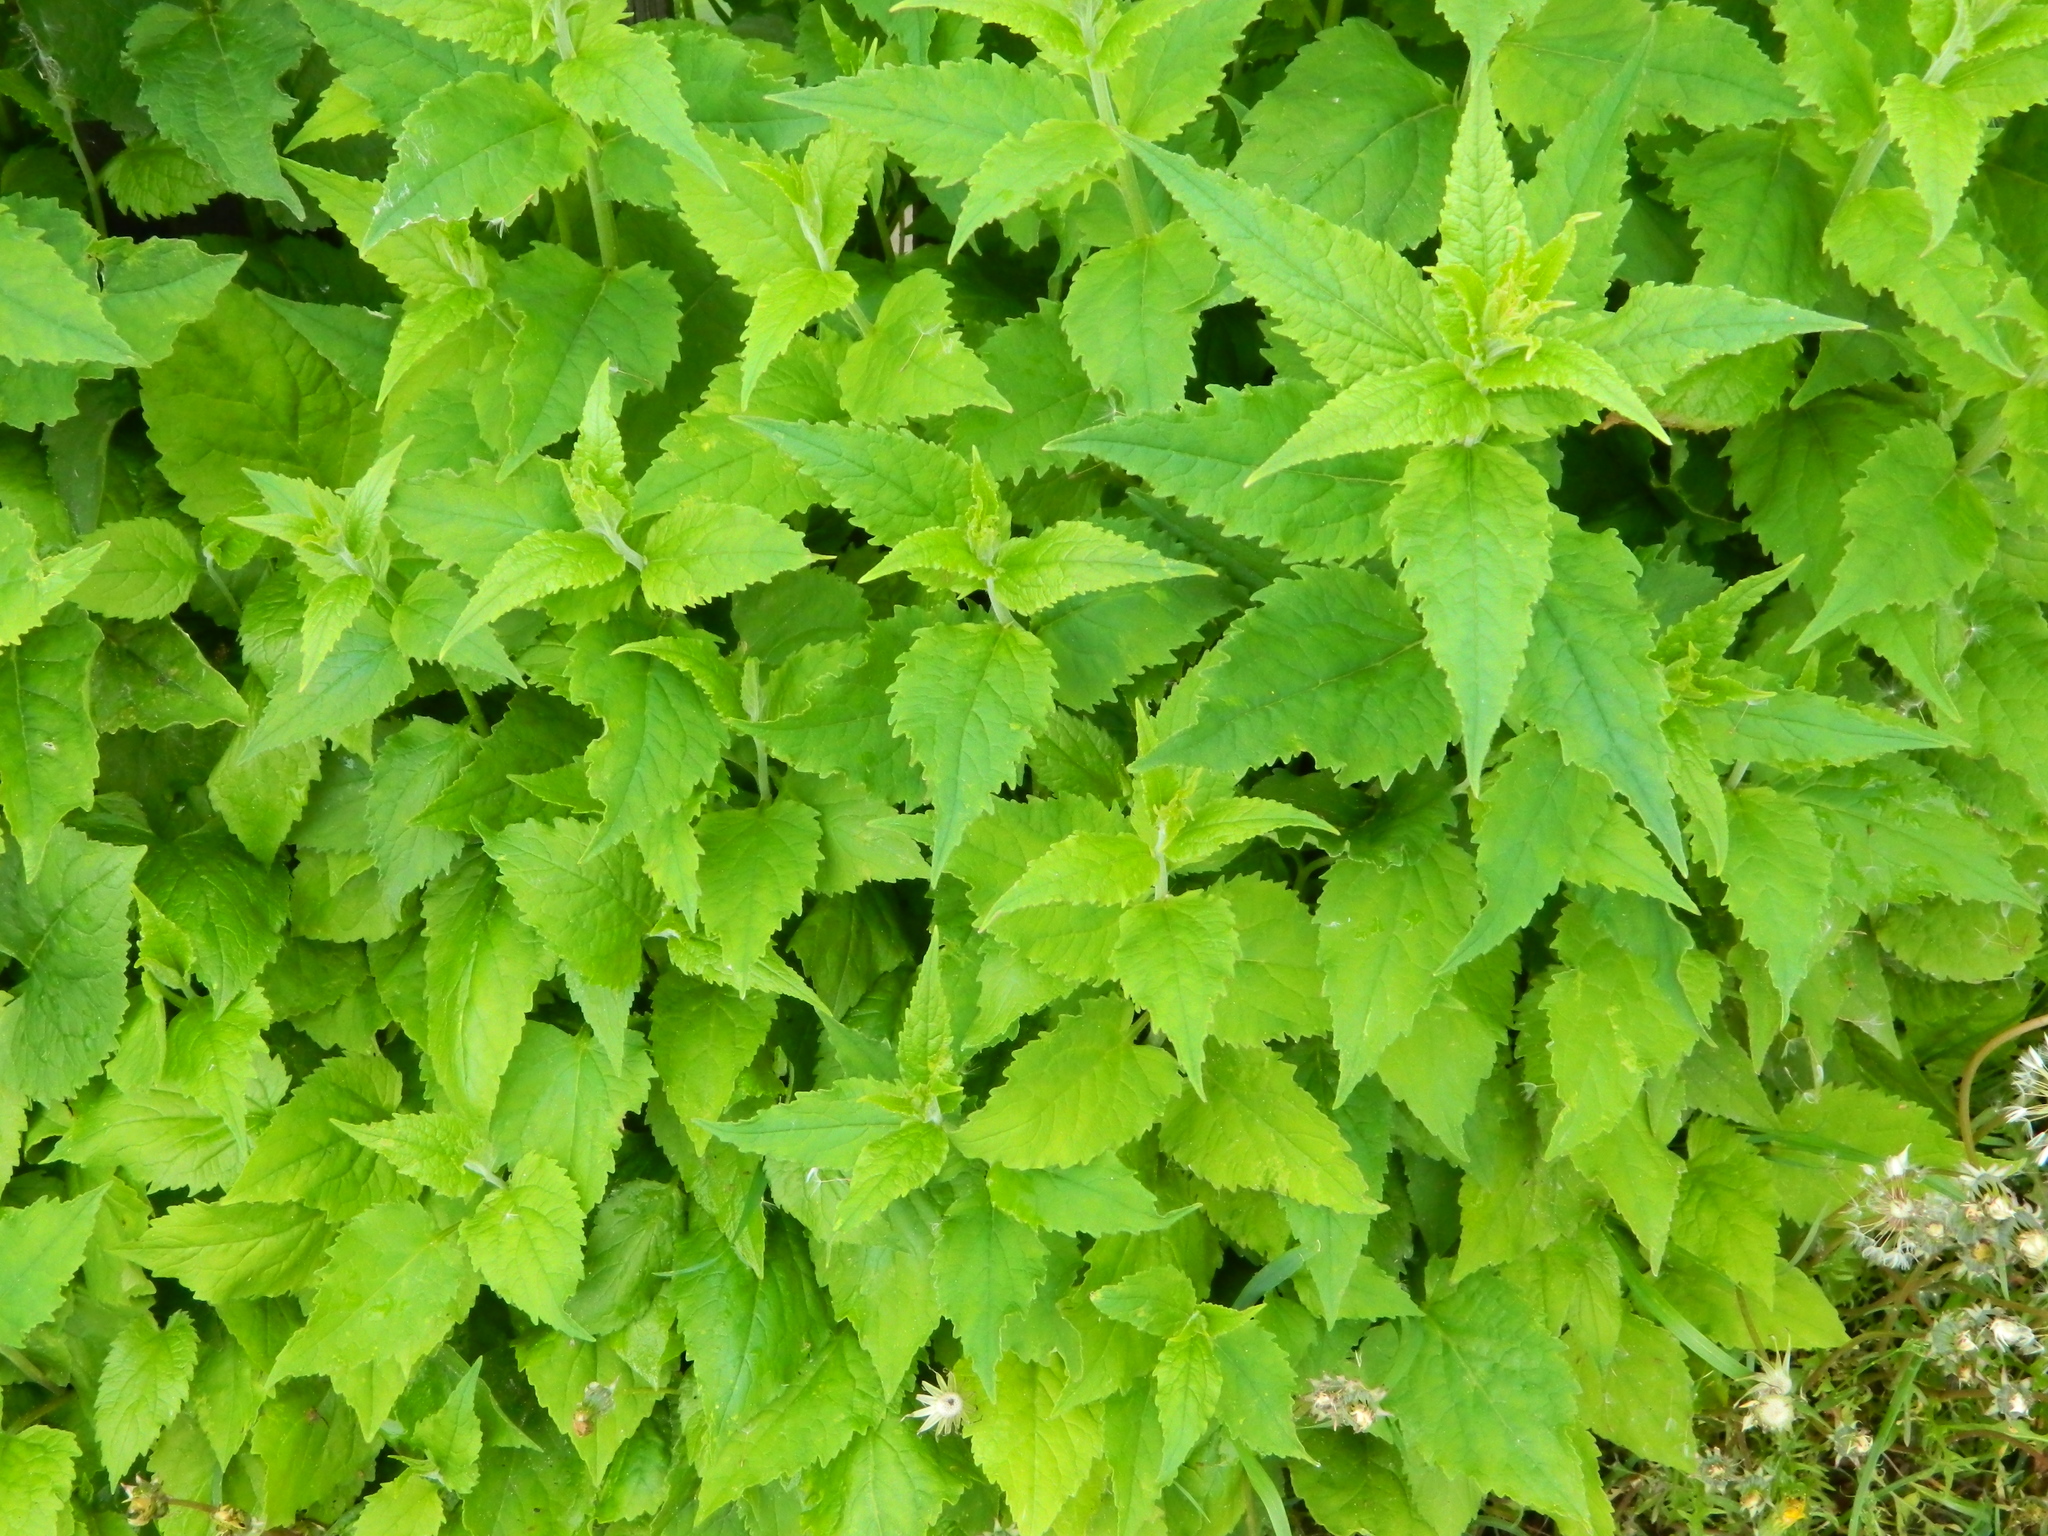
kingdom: Plantae
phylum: Tracheophyta
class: Magnoliopsida
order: Asterales
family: Campanulaceae
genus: Campanula
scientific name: Campanula rapunculoides
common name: Creeping bellflower
